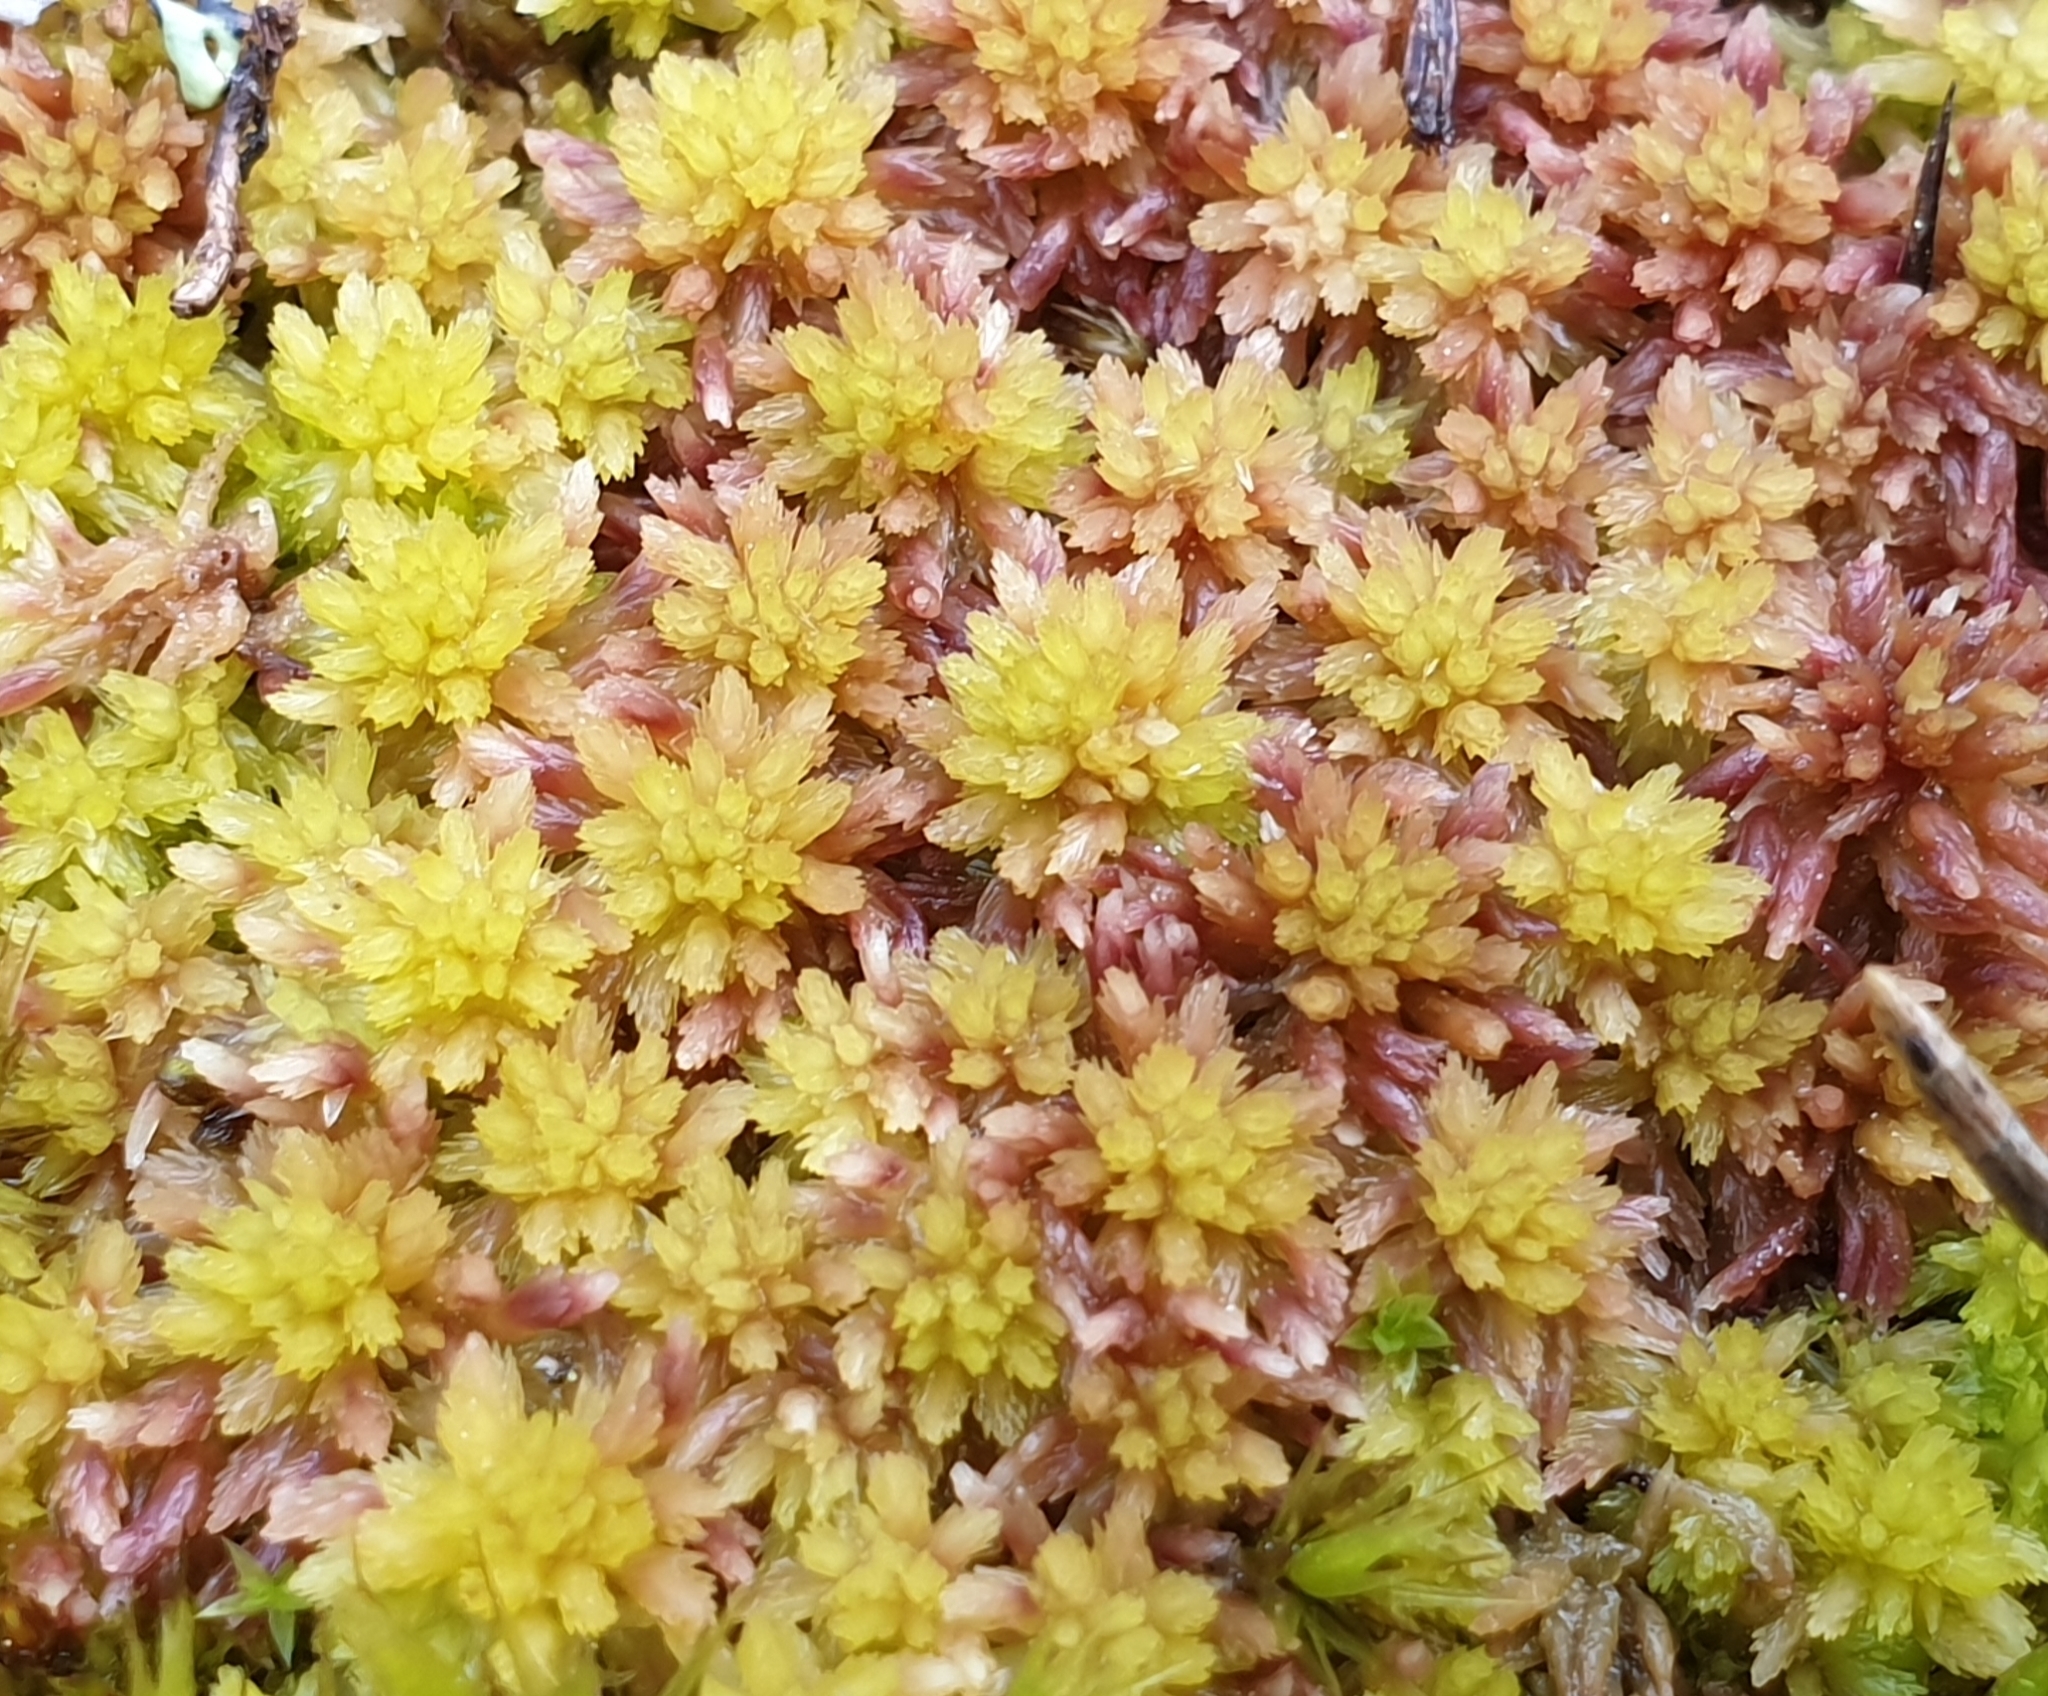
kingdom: Plantae
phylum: Bryophyta
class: Sphagnopsida
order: Sphagnales
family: Sphagnaceae
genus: Sphagnum
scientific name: Sphagnum subnitens
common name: Lustrous bog-moss
